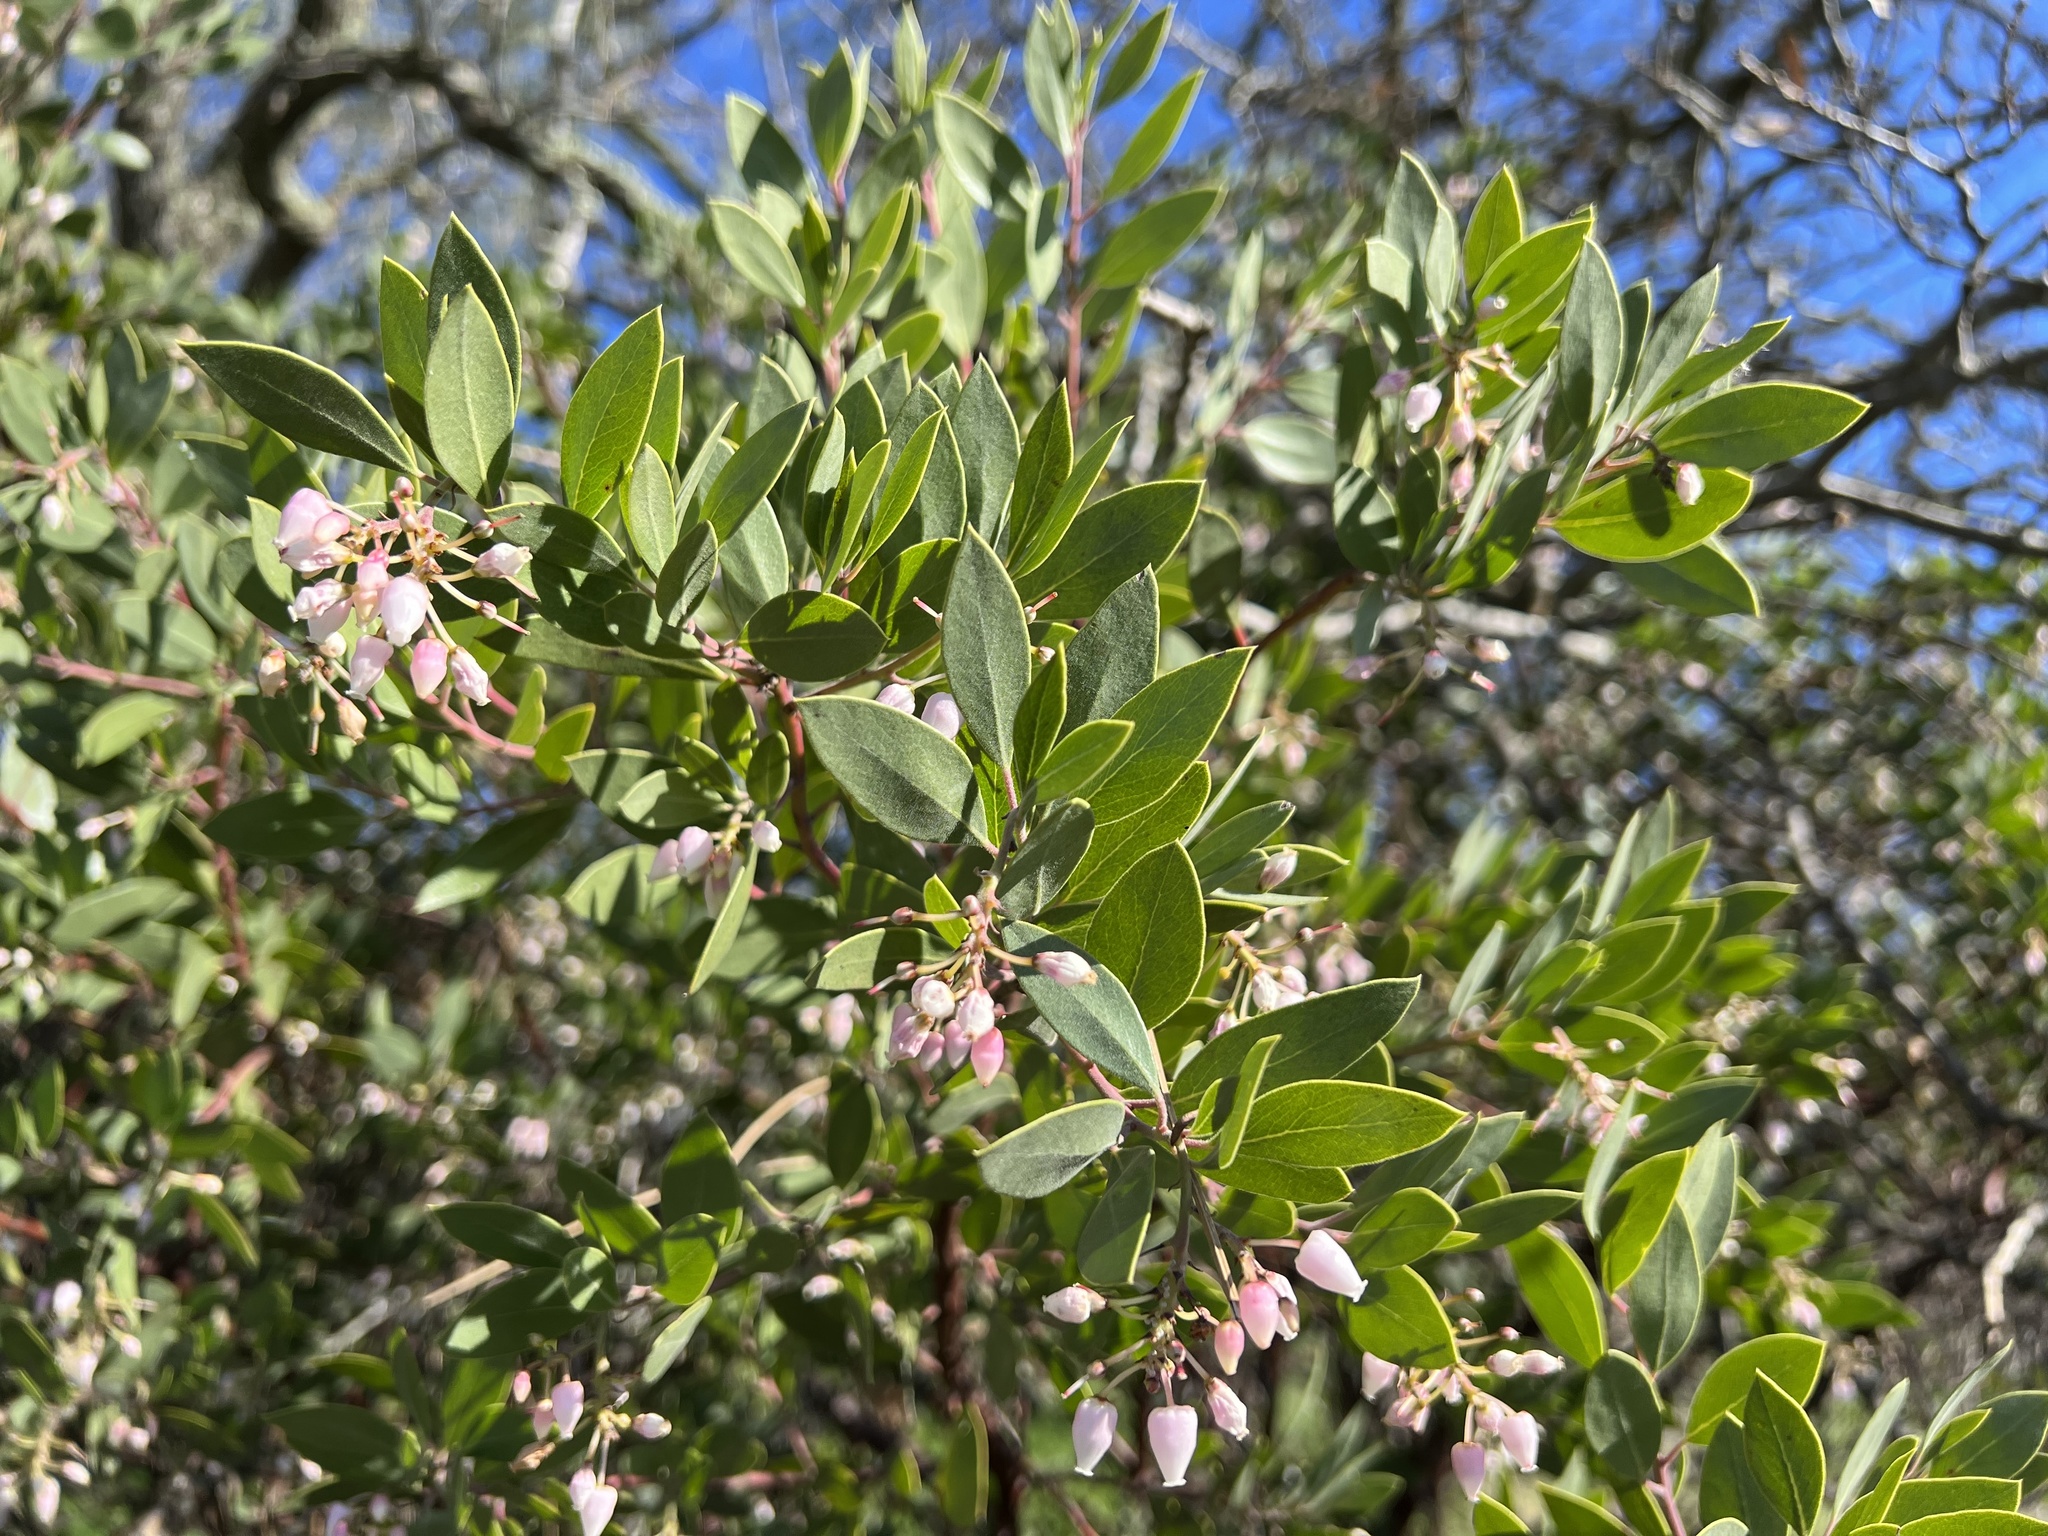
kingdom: Plantae
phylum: Tracheophyta
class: Magnoliopsida
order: Ericales
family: Ericaceae
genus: Arctostaphylos
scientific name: Arctostaphylos manzanita
